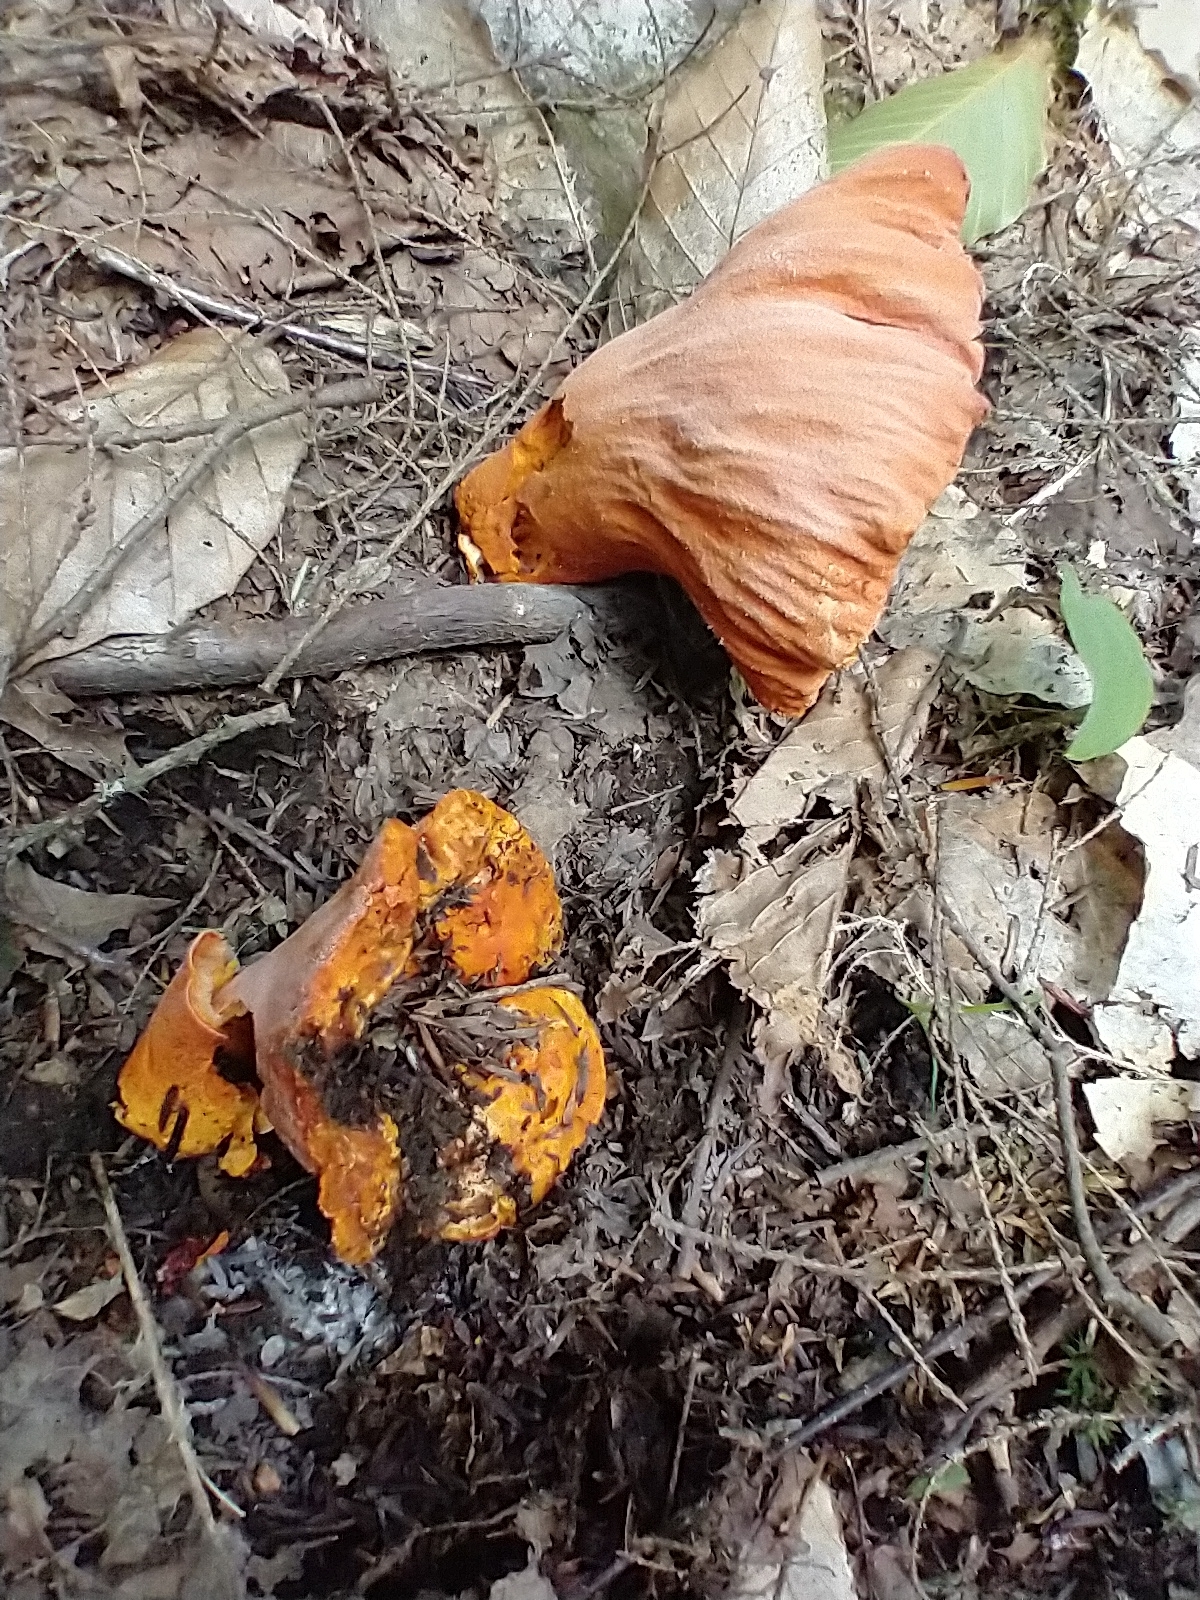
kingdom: Fungi
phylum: Ascomycota
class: Sordariomycetes
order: Hypocreales
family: Hypocreaceae
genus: Hypomyces
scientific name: Hypomyces lactifluorum
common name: Lobster mushroom
